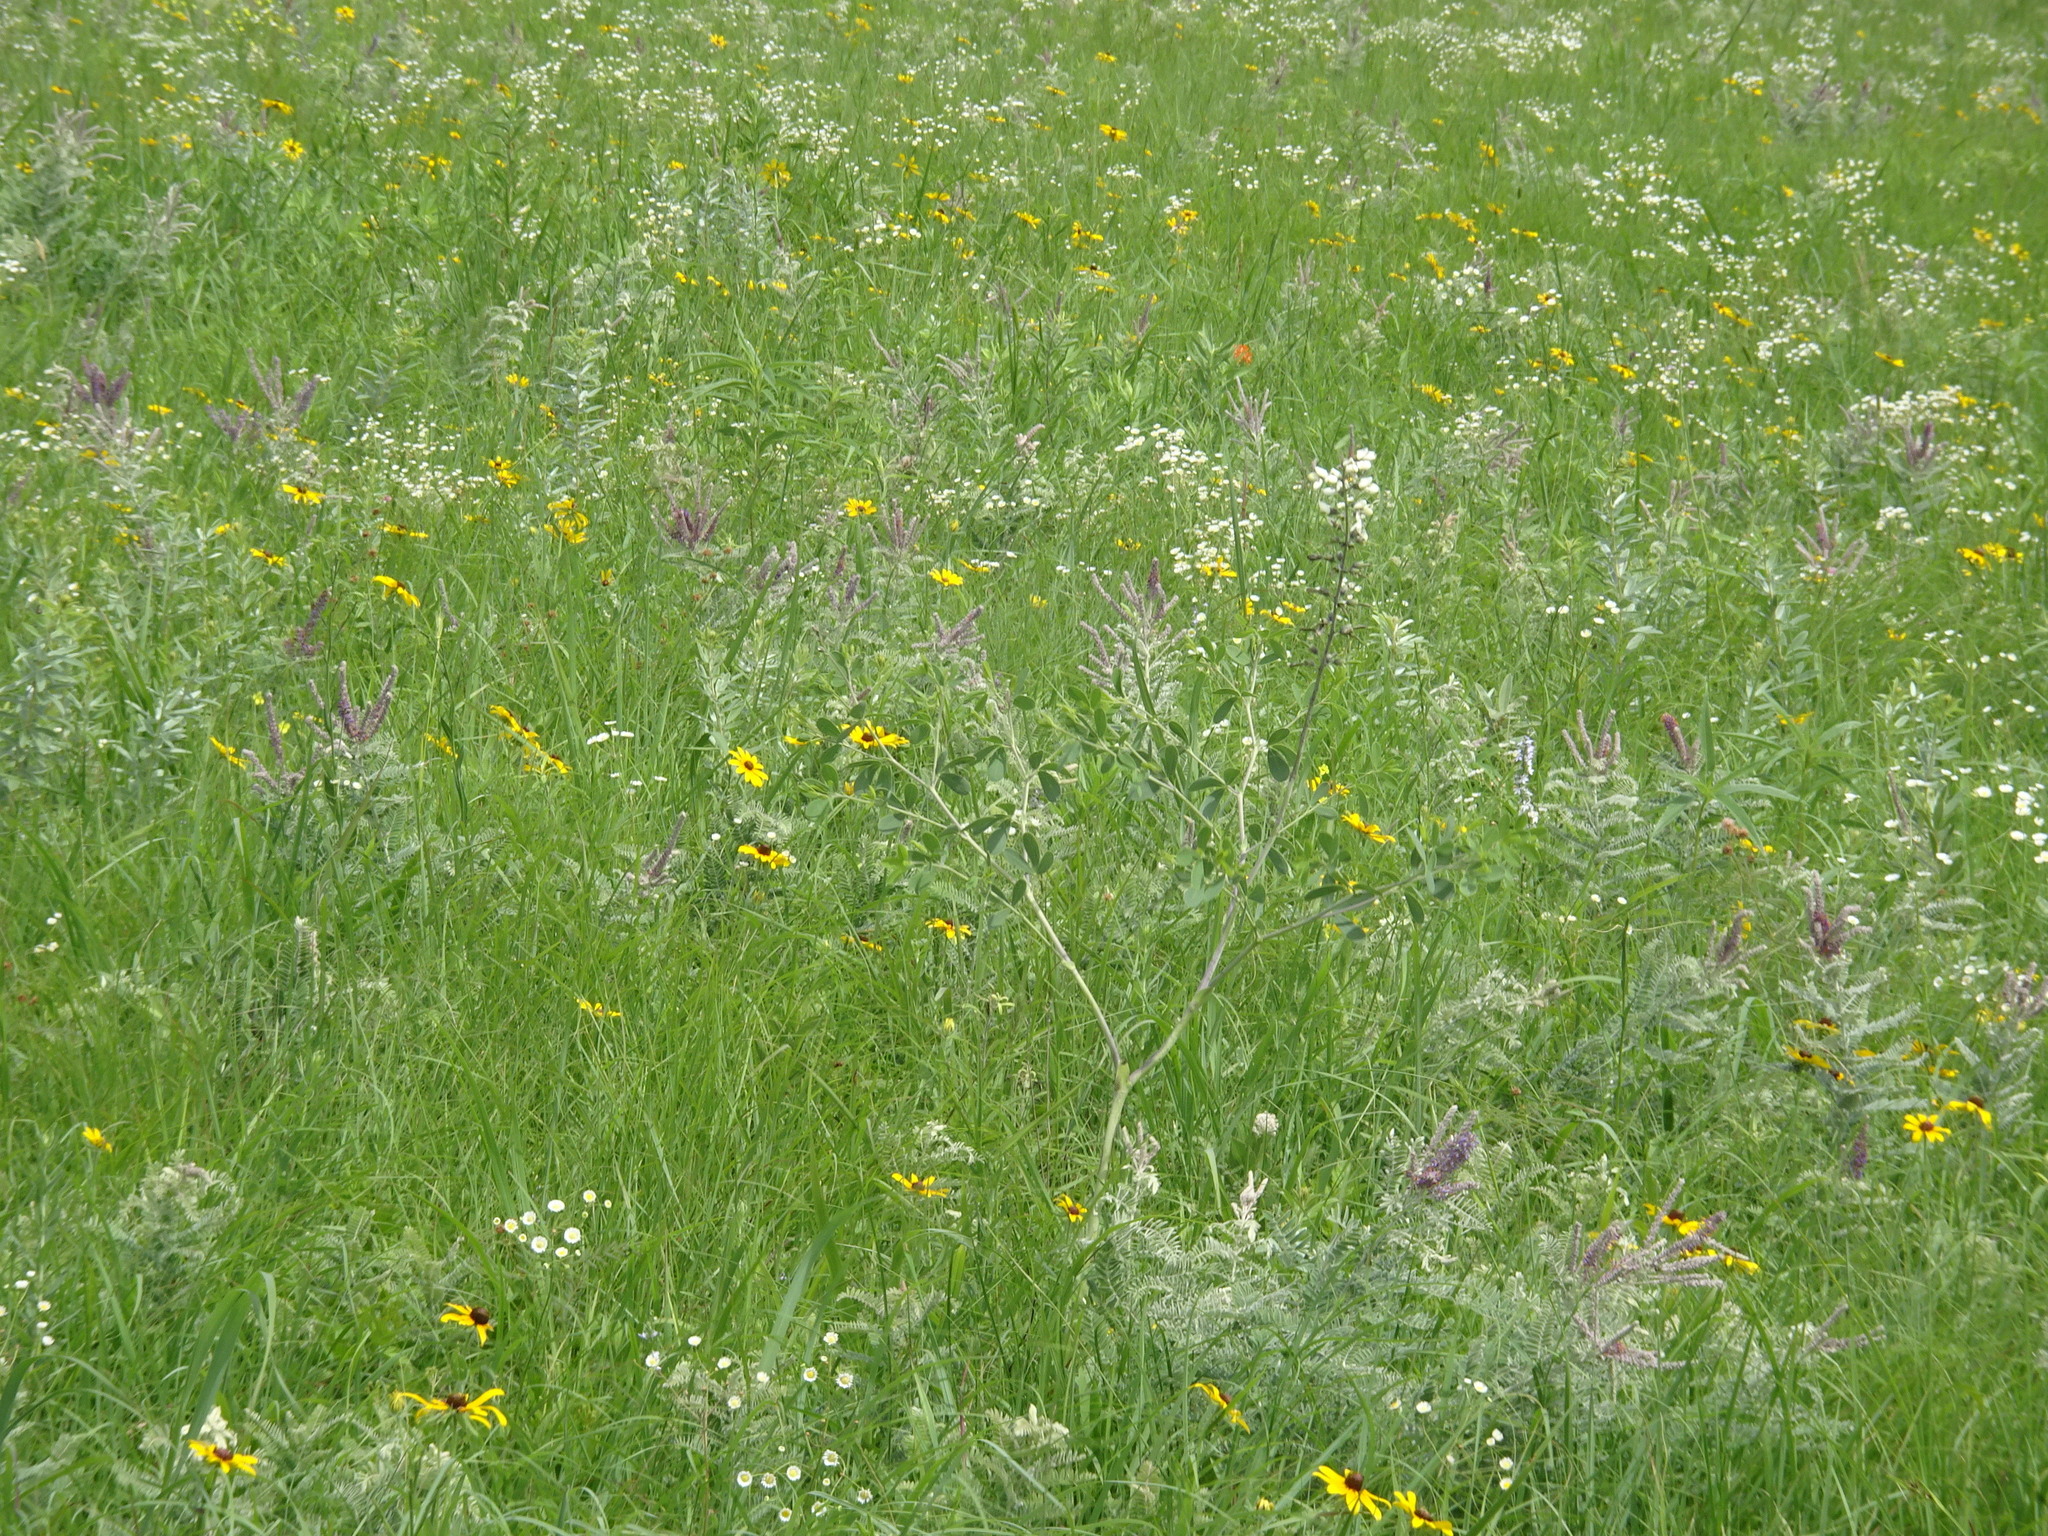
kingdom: Plantae
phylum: Tracheophyta
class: Magnoliopsida
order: Fabales
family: Fabaceae
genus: Baptisia
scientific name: Baptisia alba
